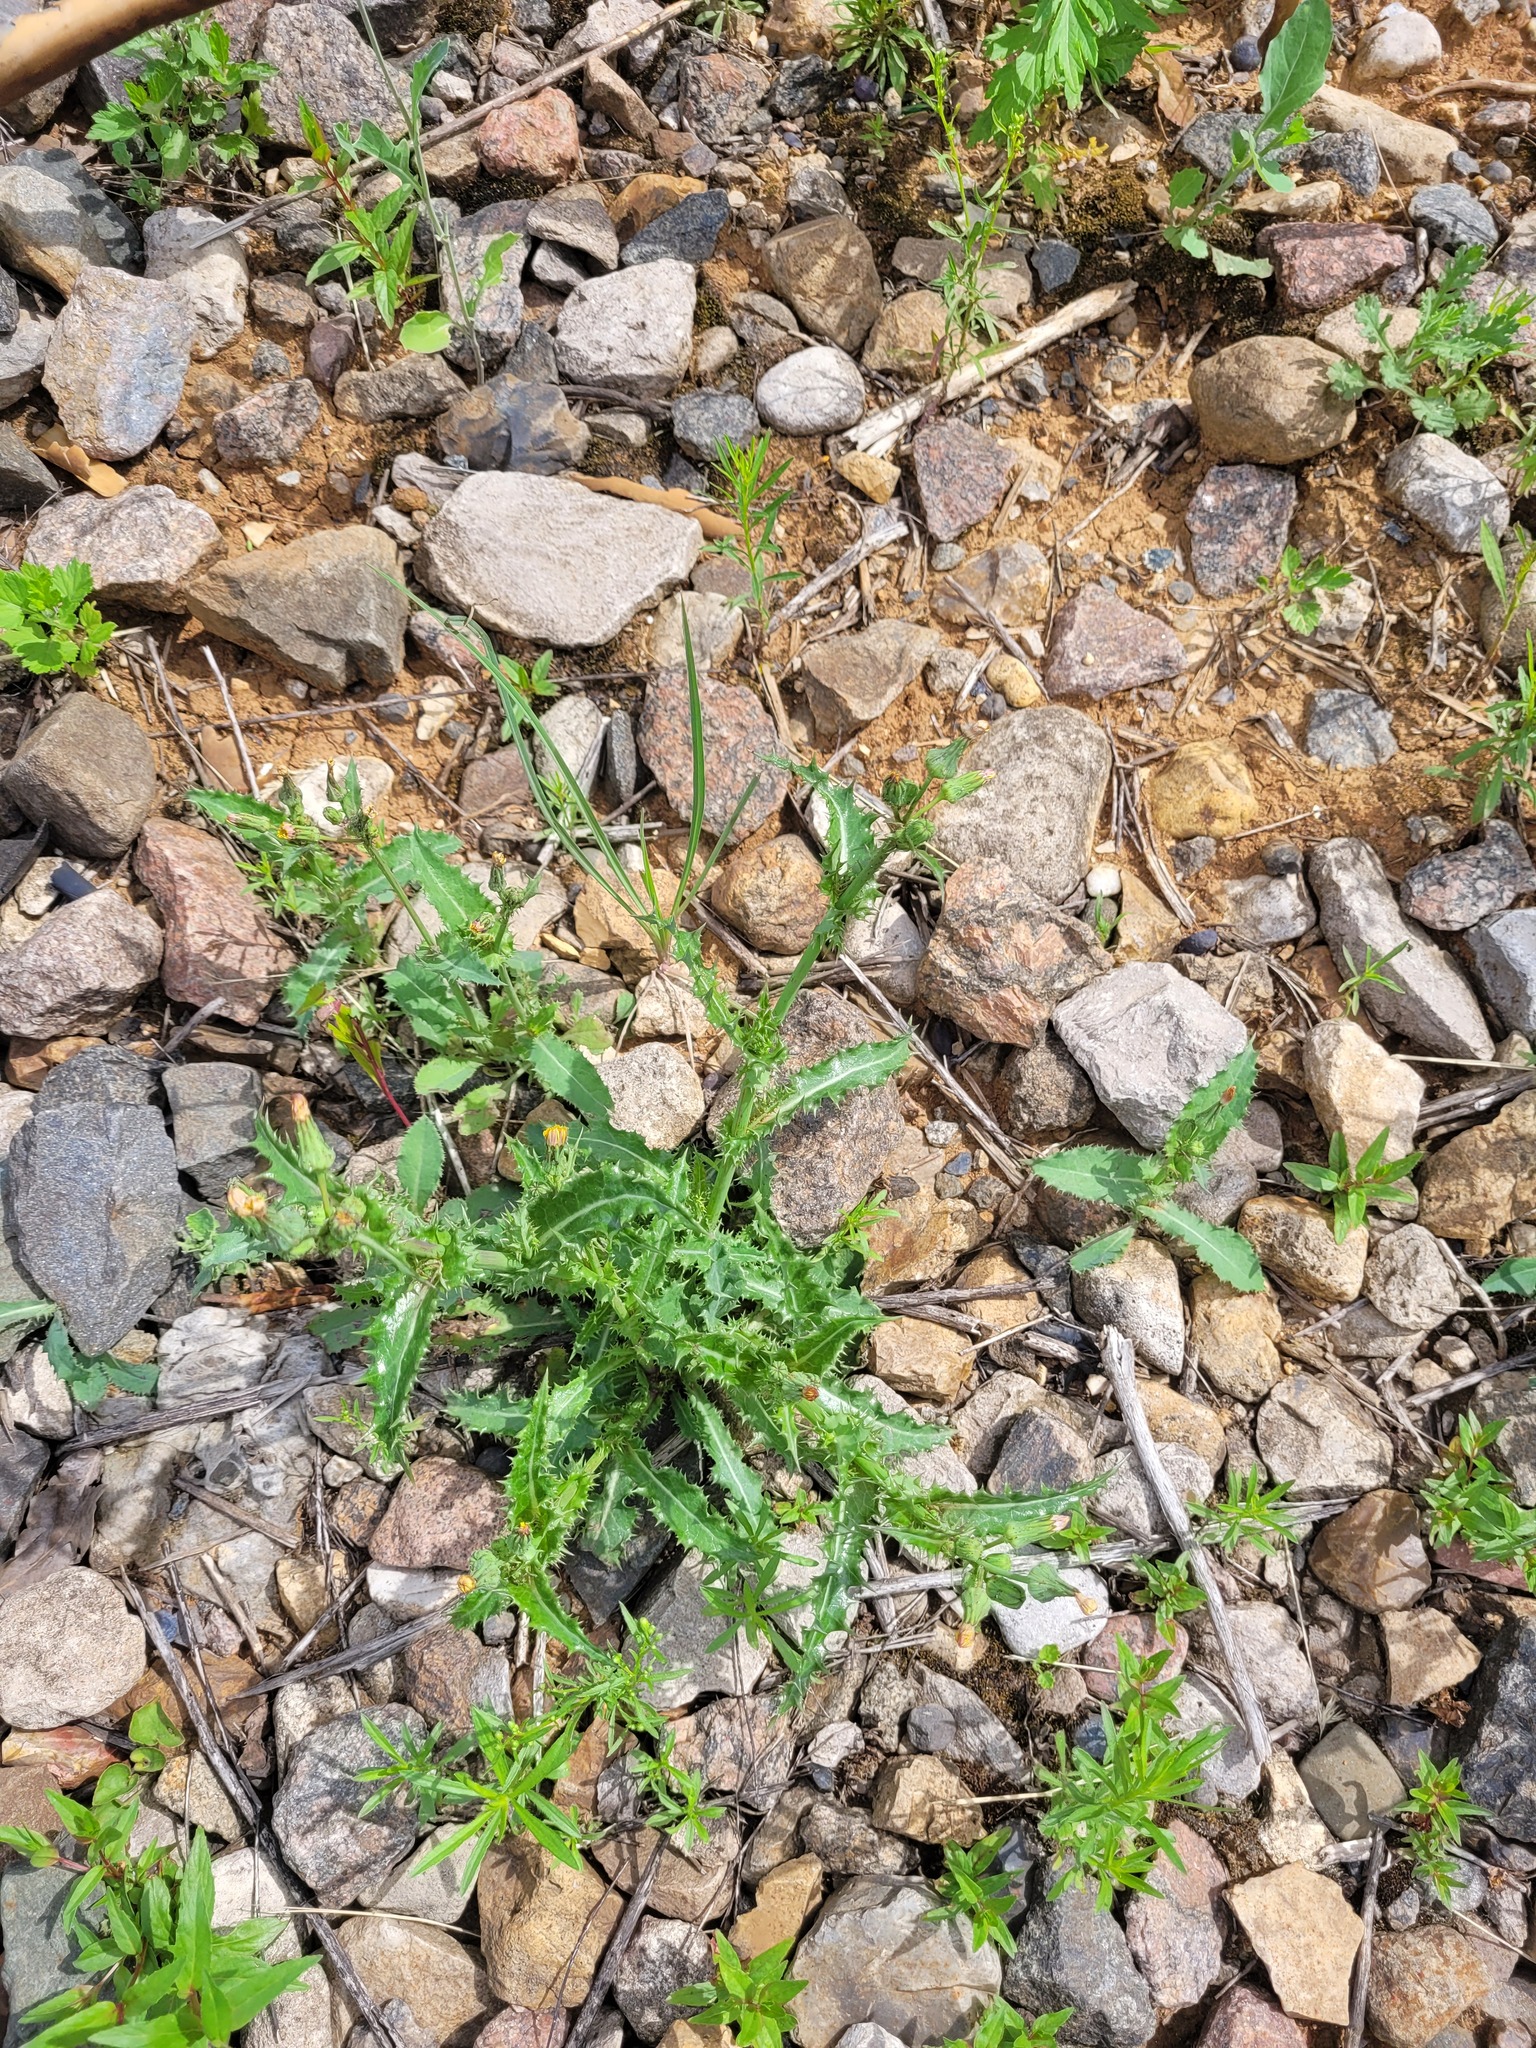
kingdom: Plantae
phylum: Tracheophyta
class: Magnoliopsida
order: Asterales
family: Asteraceae
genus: Sonchus
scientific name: Sonchus asper
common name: Prickly sow-thistle
